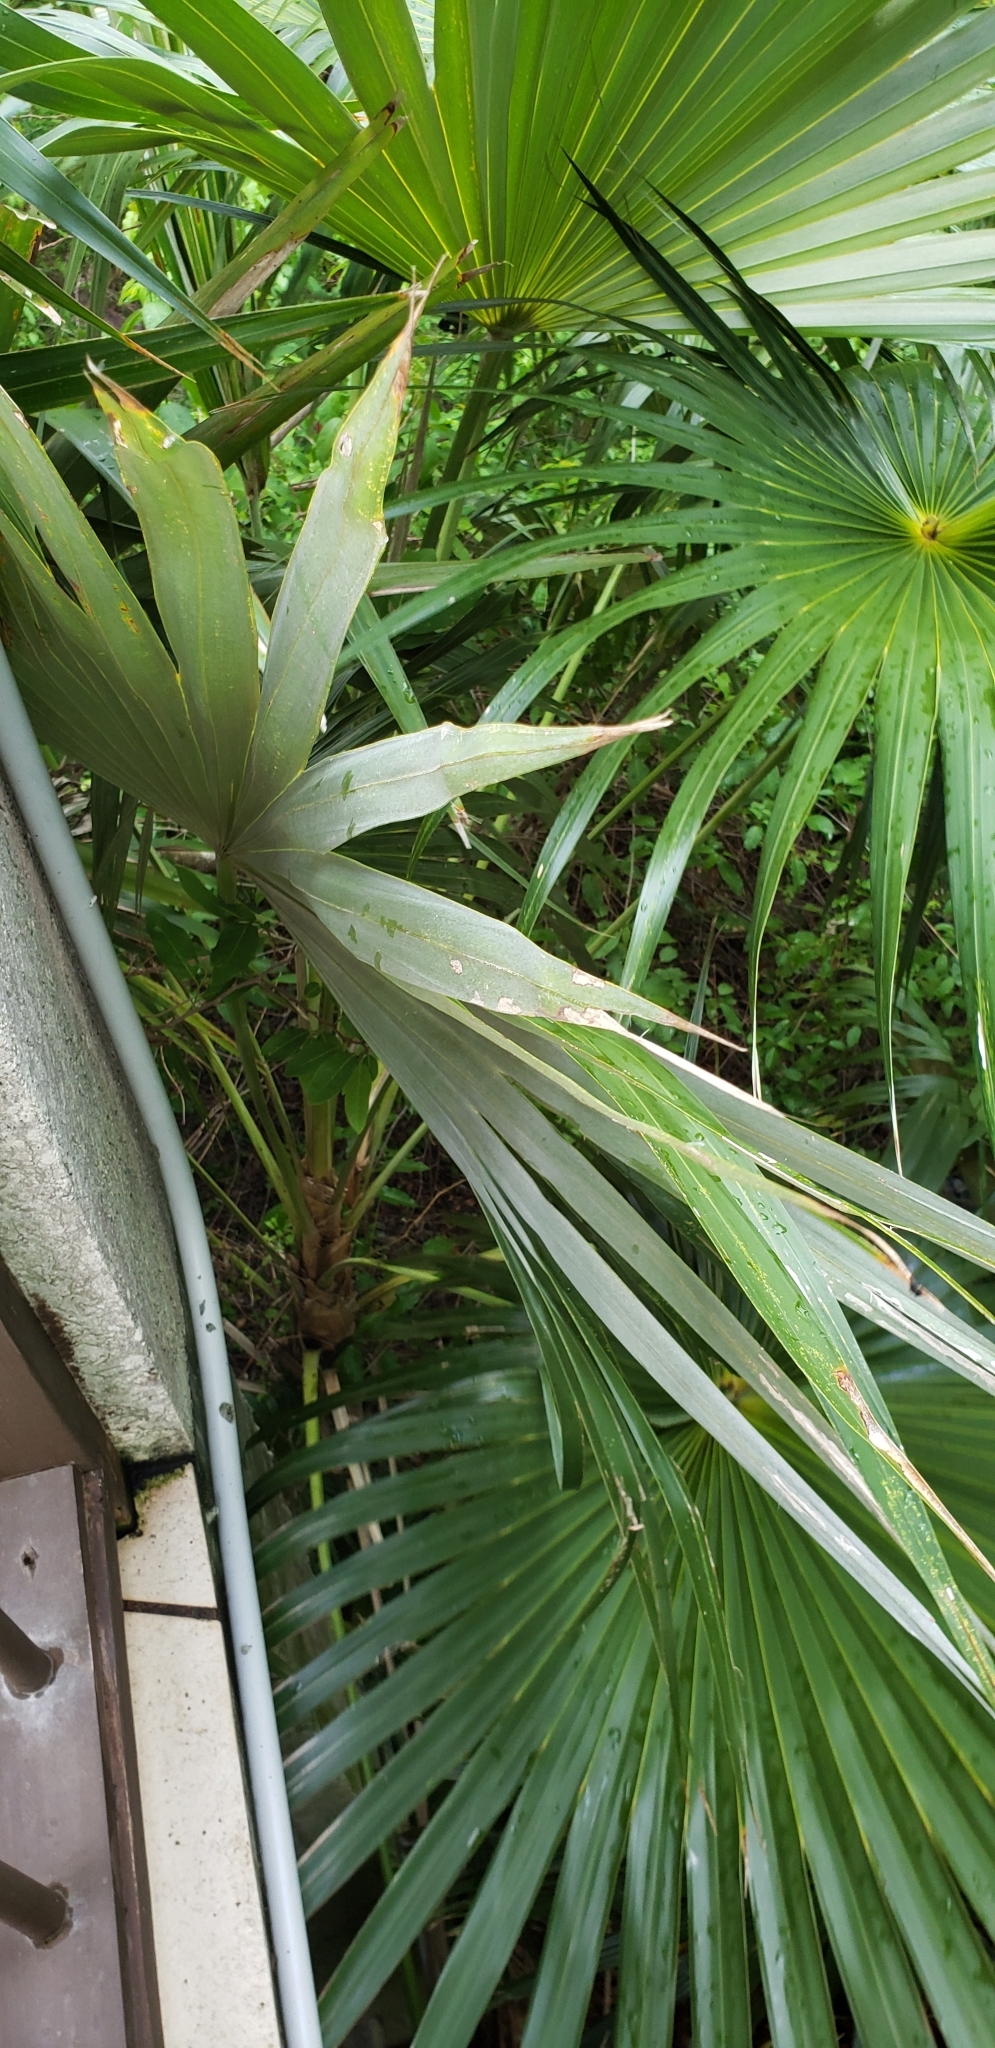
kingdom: Plantae
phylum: Tracheophyta
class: Liliopsida
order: Arecales
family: Arecaceae
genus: Coccothrinax
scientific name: Coccothrinax alta
